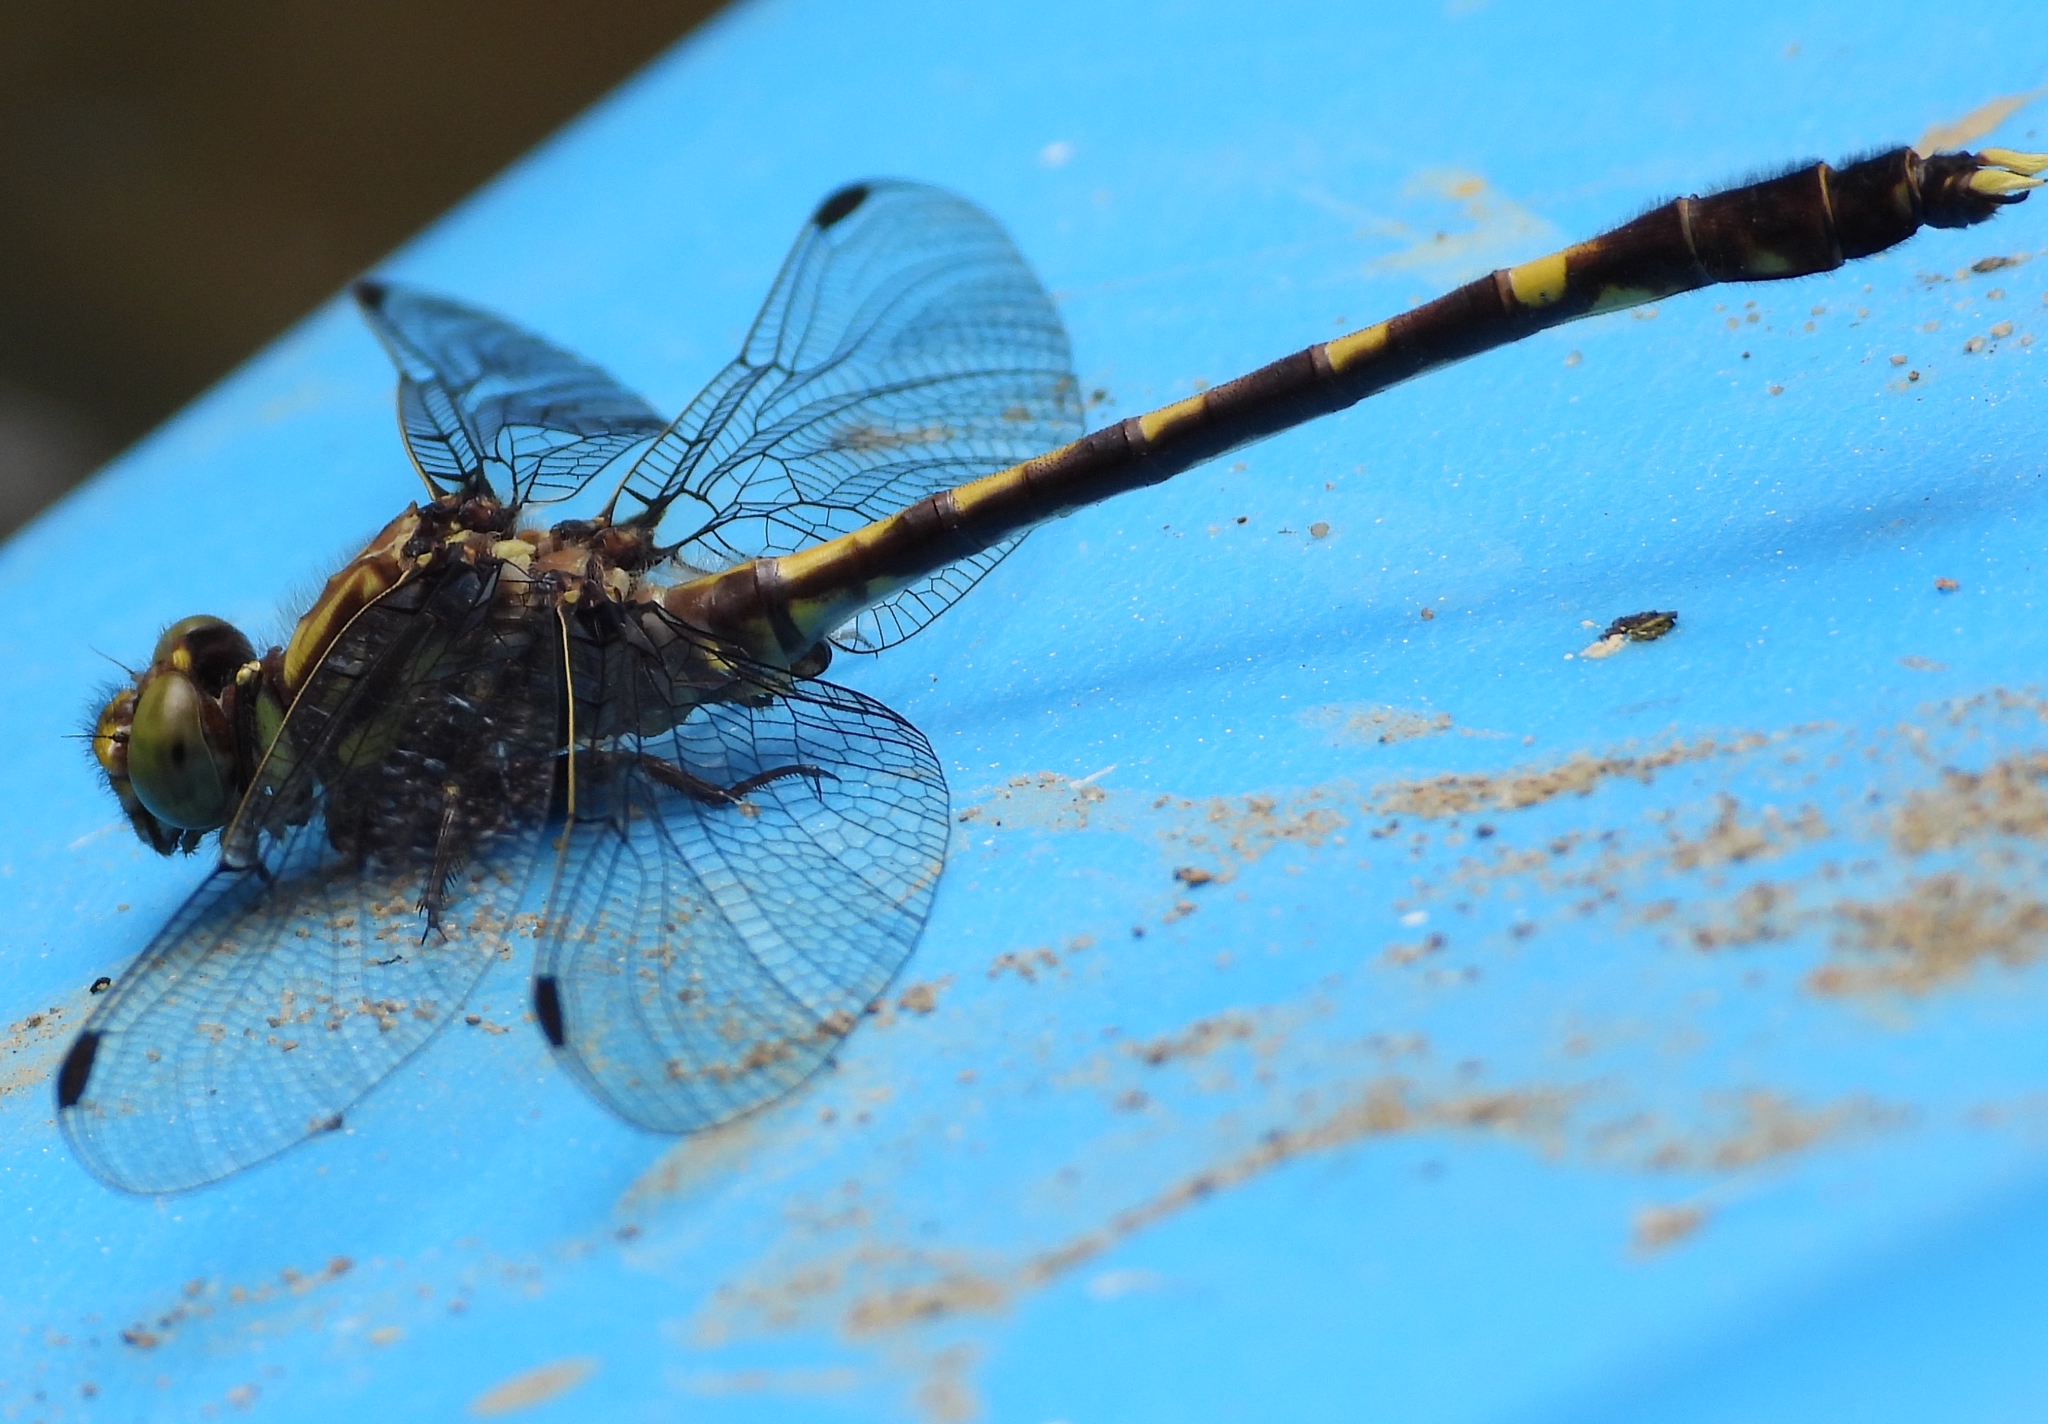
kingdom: Animalia
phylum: Arthropoda
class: Insecta
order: Odonata
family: Gomphidae
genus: Progomphus
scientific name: Progomphus obscurus
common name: Common sanddragon
